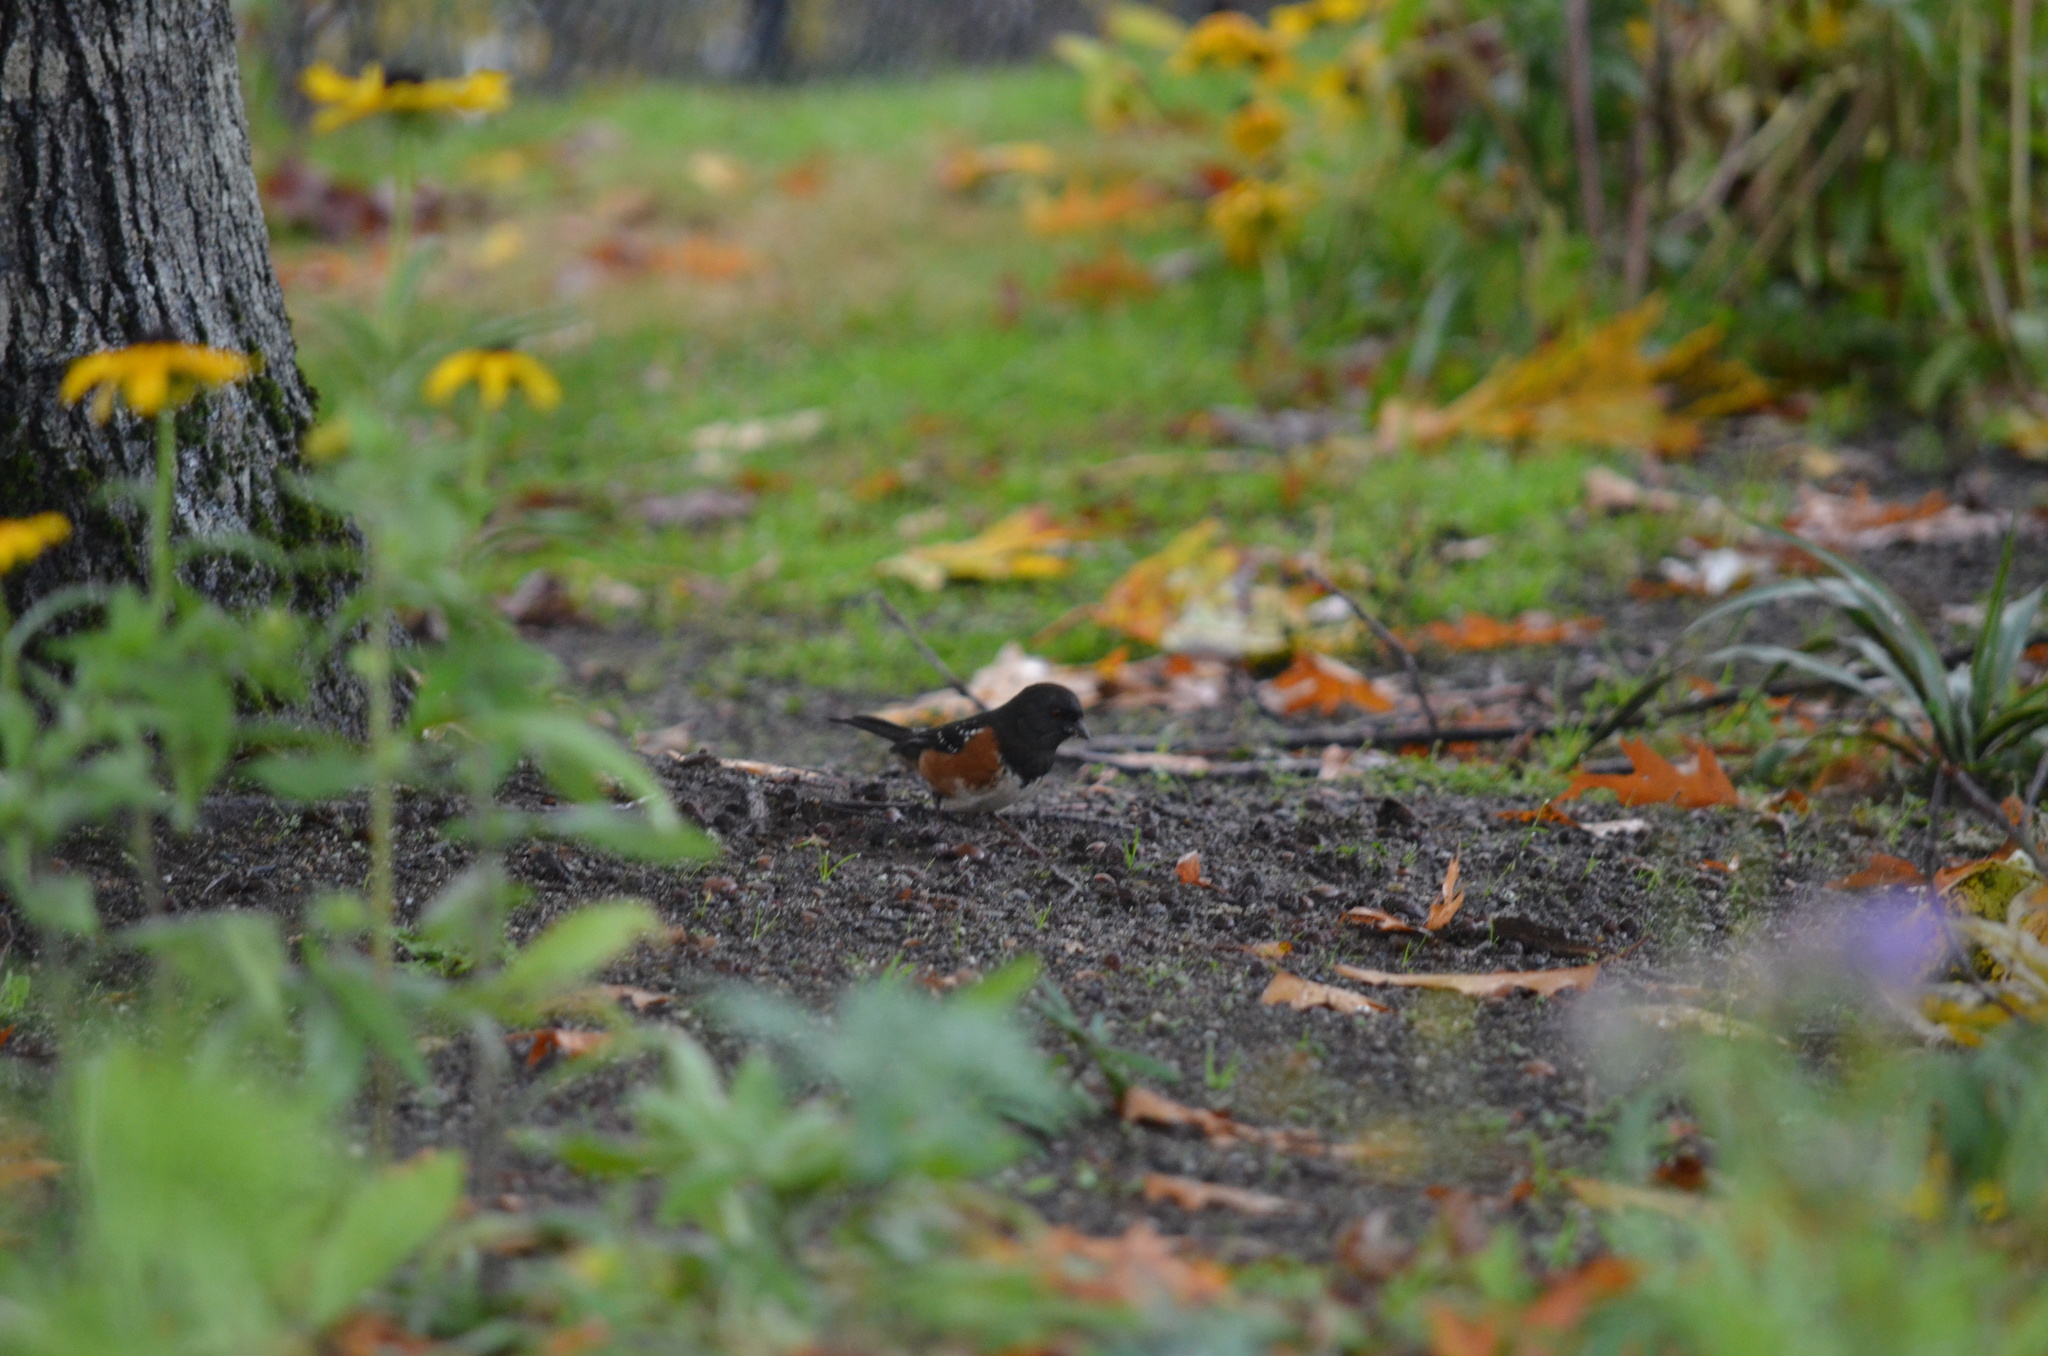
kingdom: Animalia
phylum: Chordata
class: Aves
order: Passeriformes
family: Passerellidae
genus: Pipilo
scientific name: Pipilo maculatus
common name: Spotted towhee
